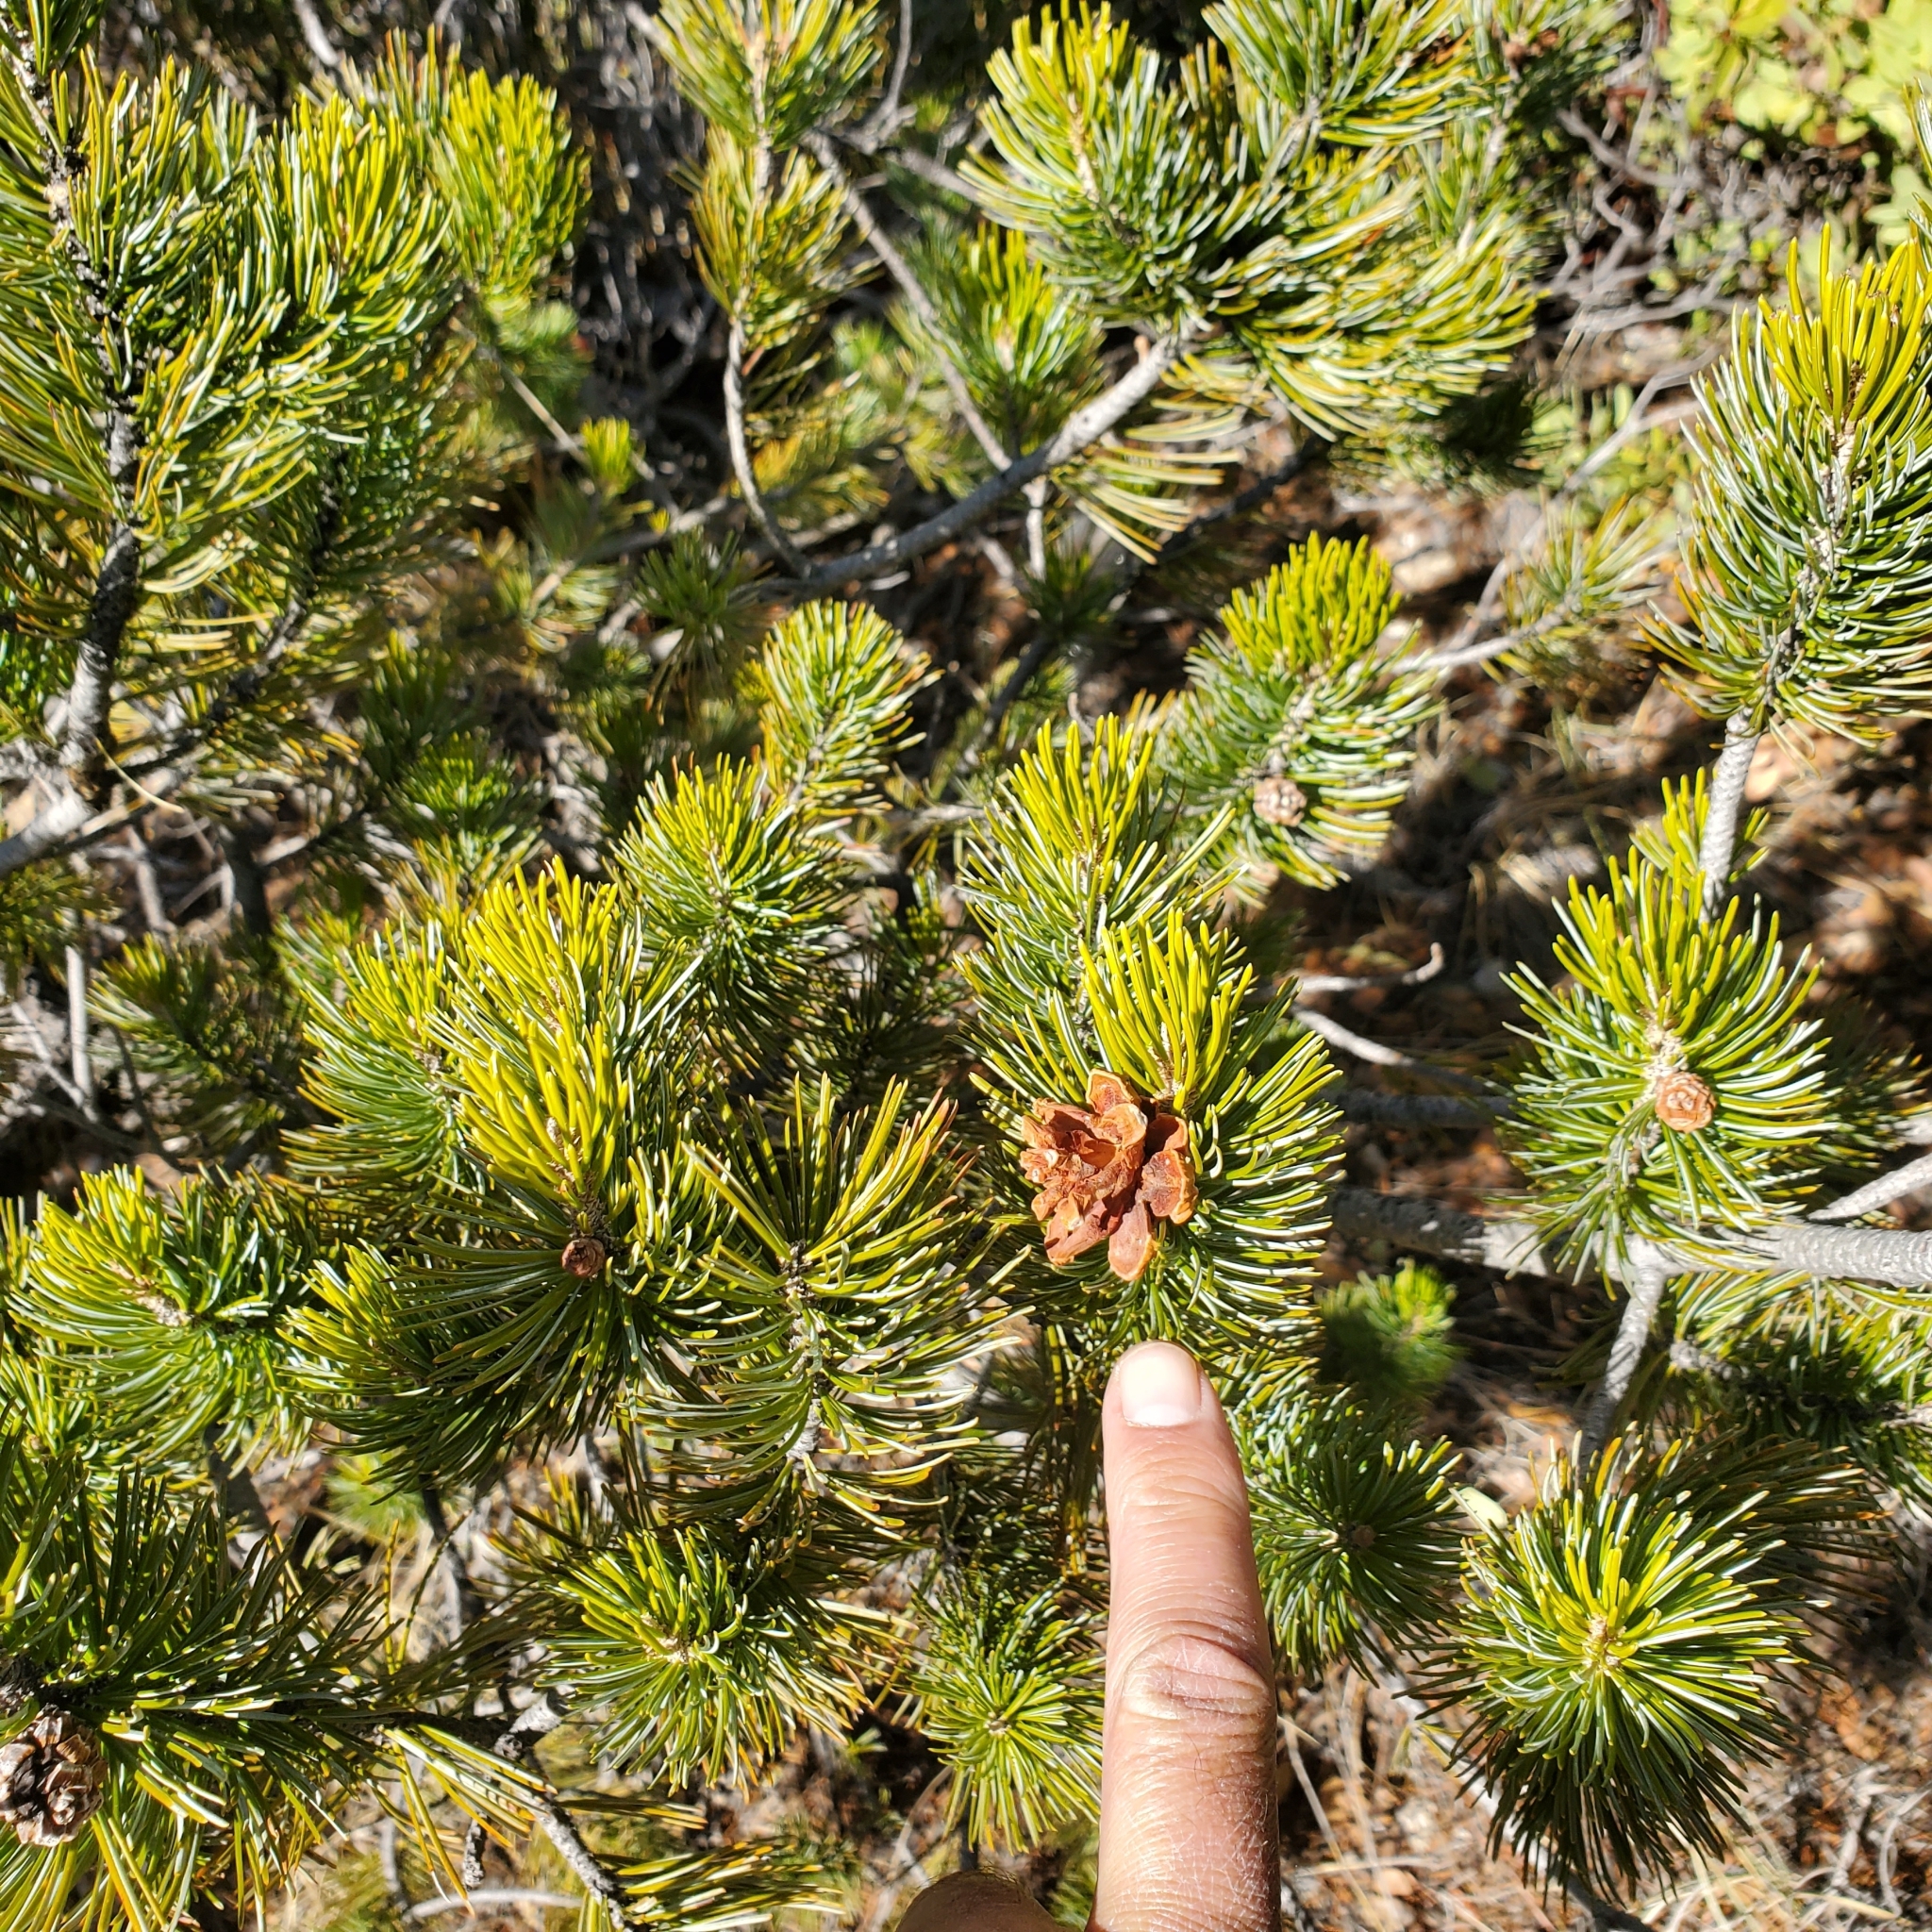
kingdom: Plantae
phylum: Tracheophyta
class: Pinopsida
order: Pinales
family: Pinaceae
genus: Pinus
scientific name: Pinus cembroides
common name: Mexican nut pine
